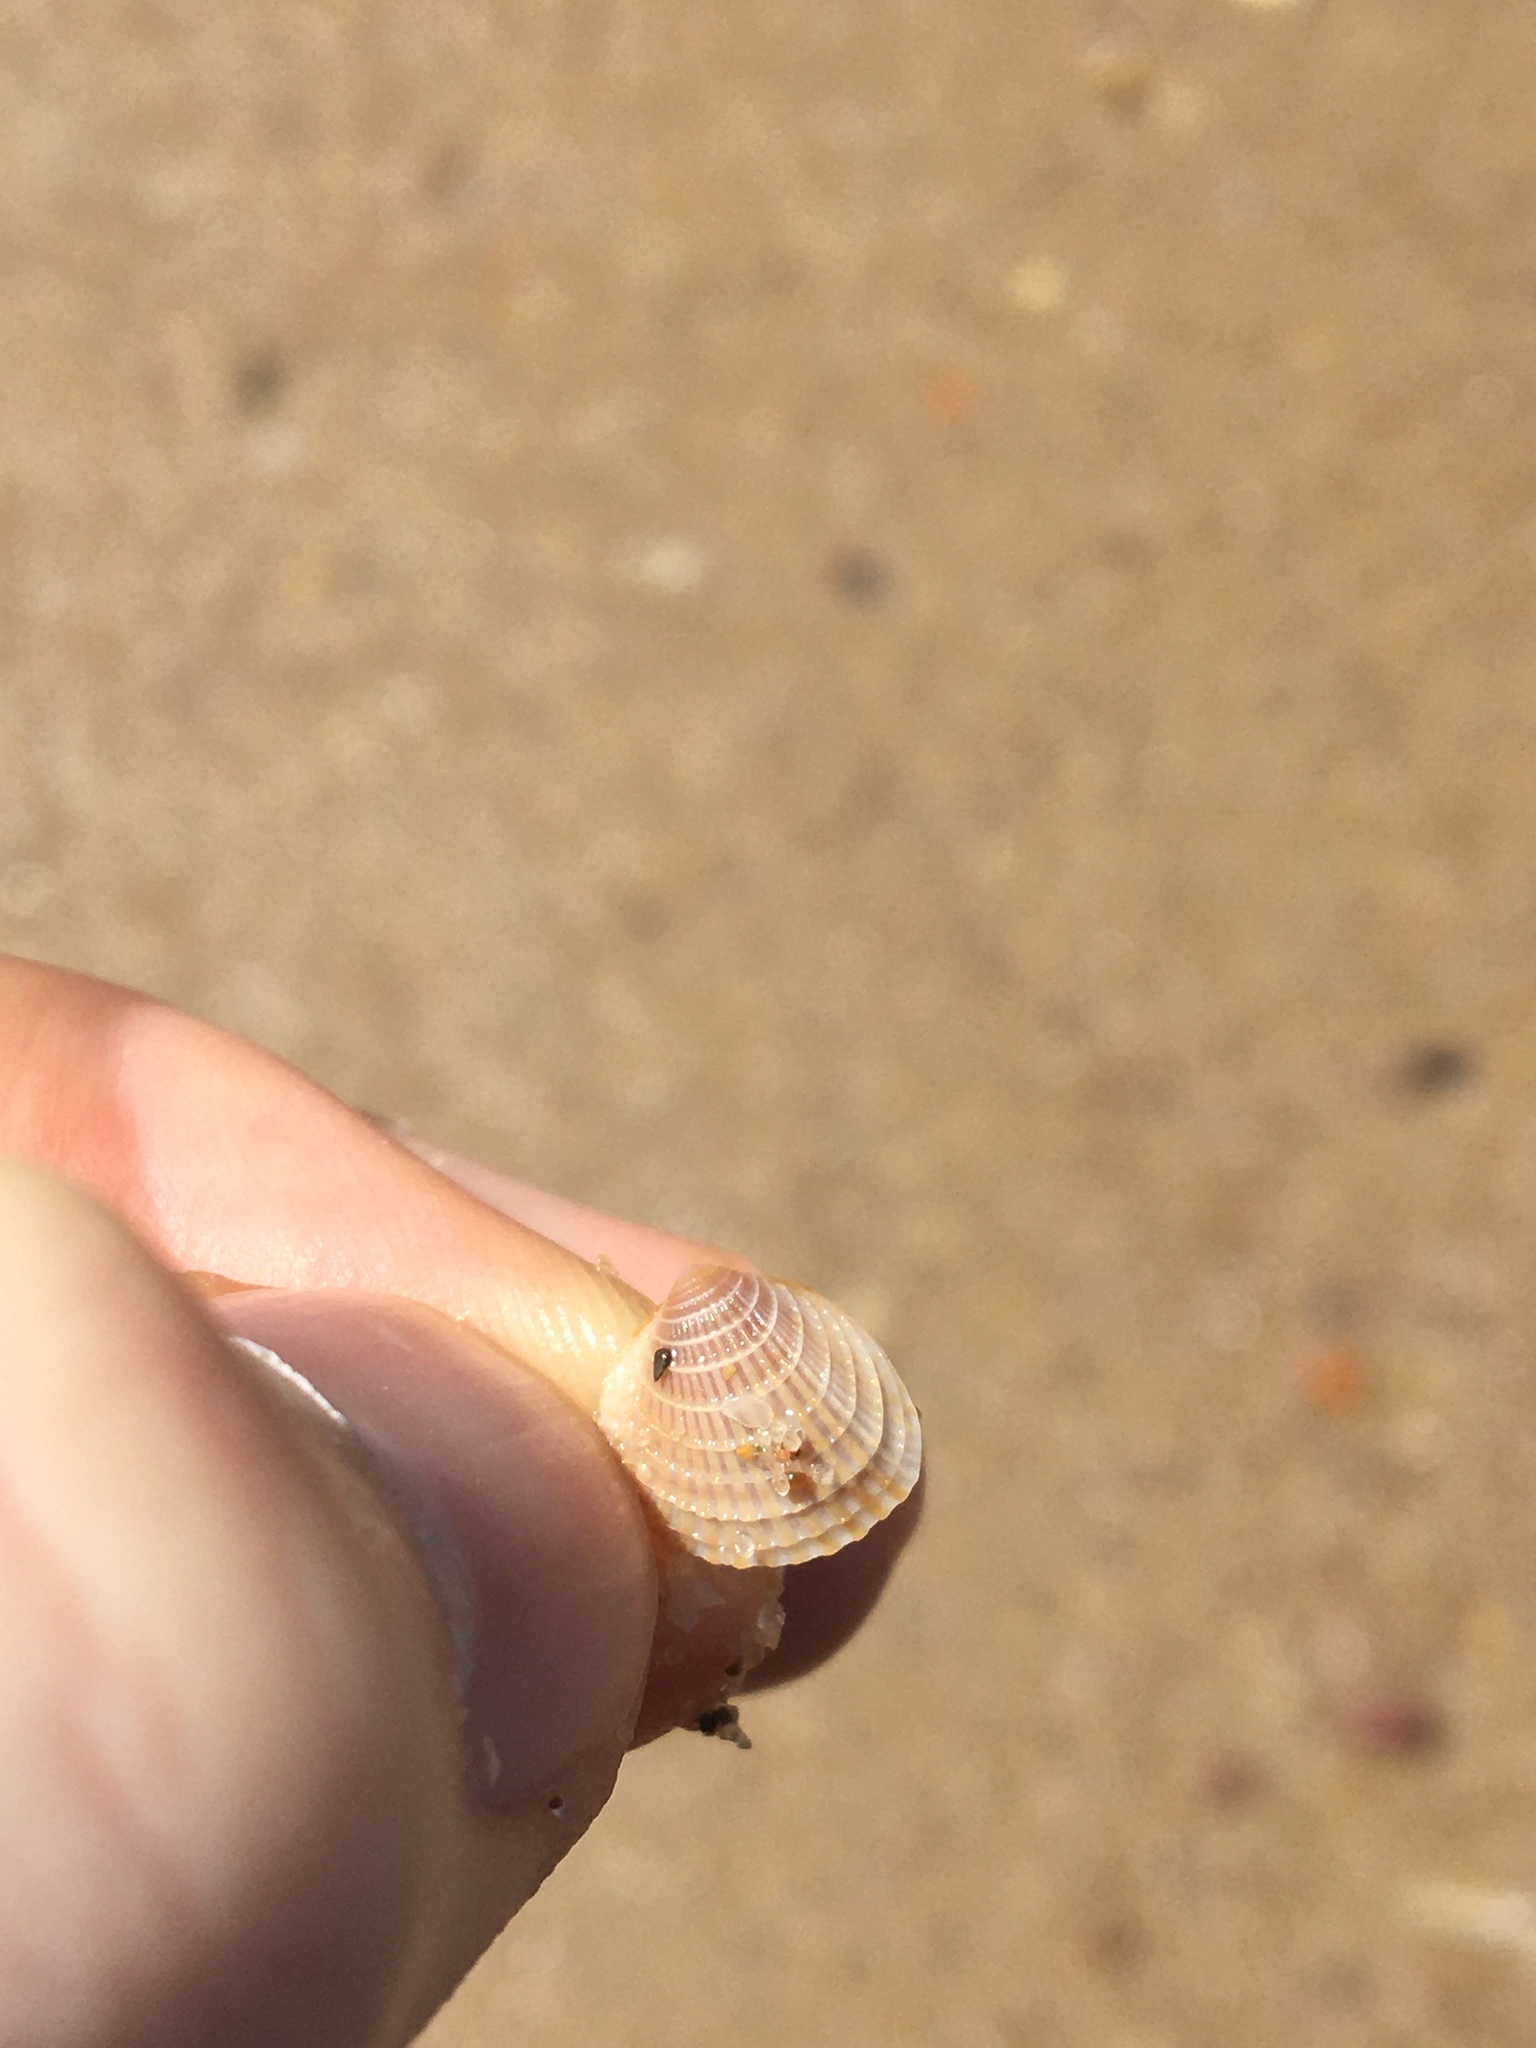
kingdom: Animalia
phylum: Mollusca
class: Bivalvia
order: Venerida
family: Veneridae
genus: Timoclea
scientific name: Timoclea scabra
